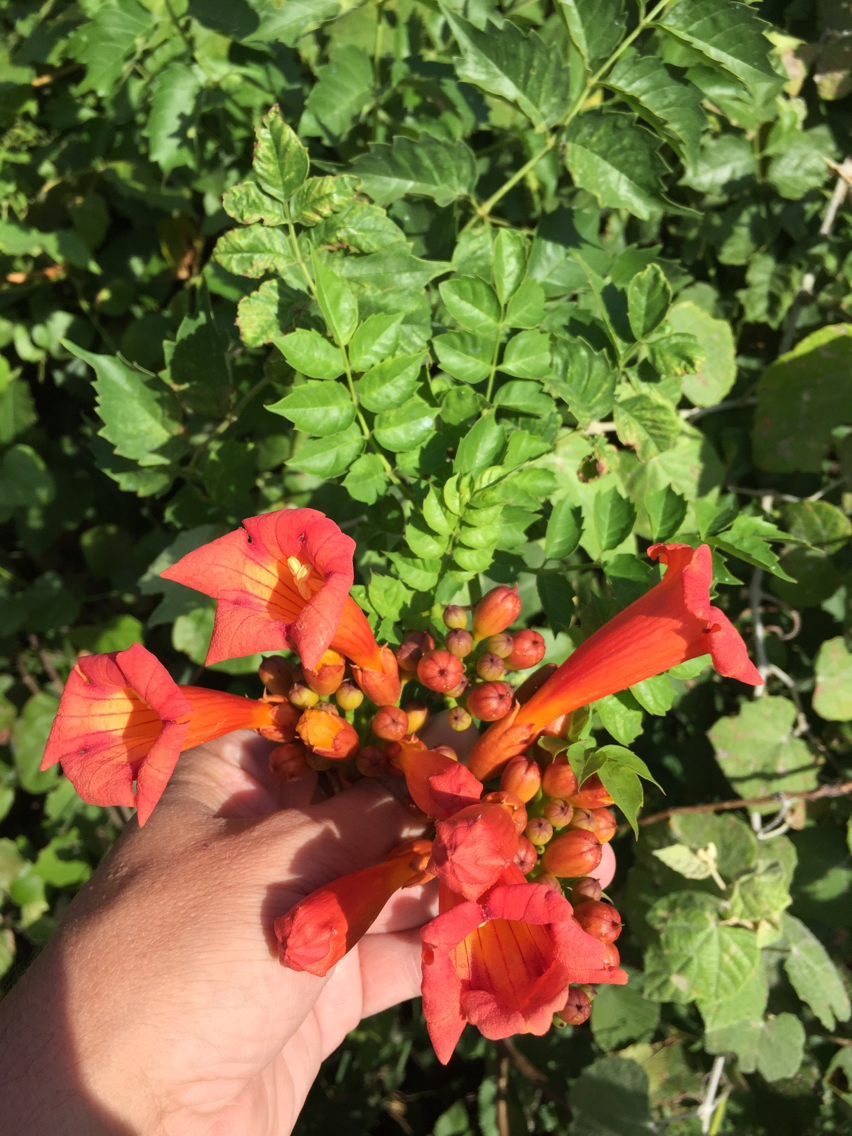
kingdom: Plantae
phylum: Tracheophyta
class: Magnoliopsida
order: Lamiales
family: Bignoniaceae
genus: Campsis
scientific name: Campsis radicans
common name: Trumpet-creeper
